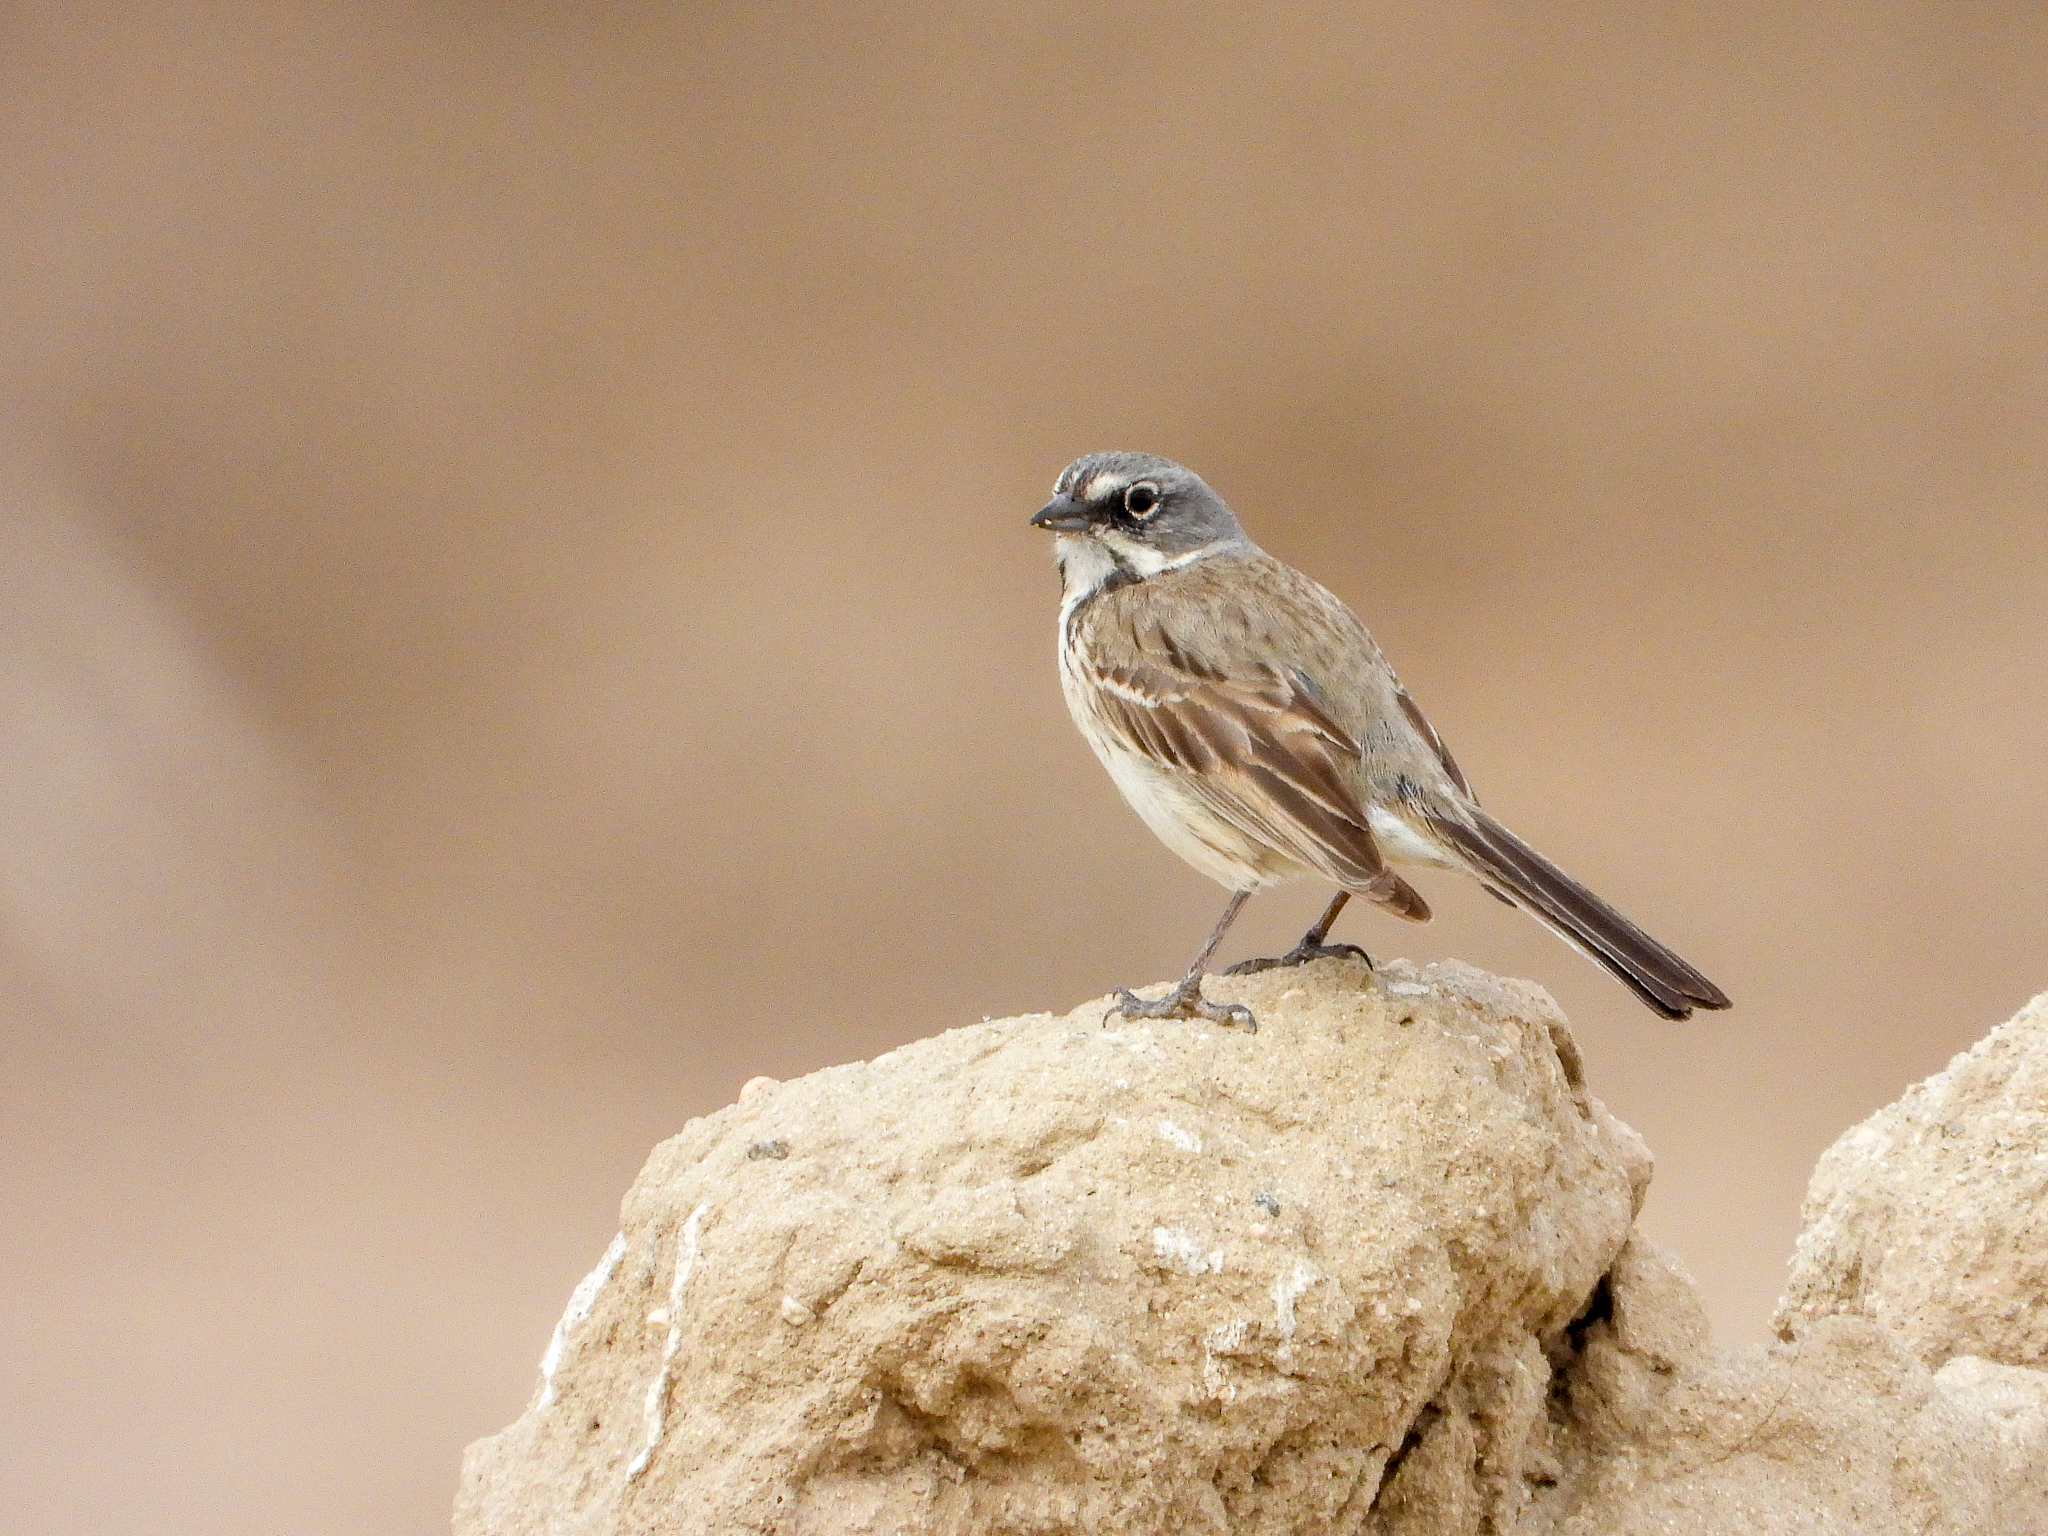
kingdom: Animalia
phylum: Chordata
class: Aves
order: Passeriformes
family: Passerellidae
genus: Artemisiospiza
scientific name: Artemisiospiza belli
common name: Bell's sparrow
